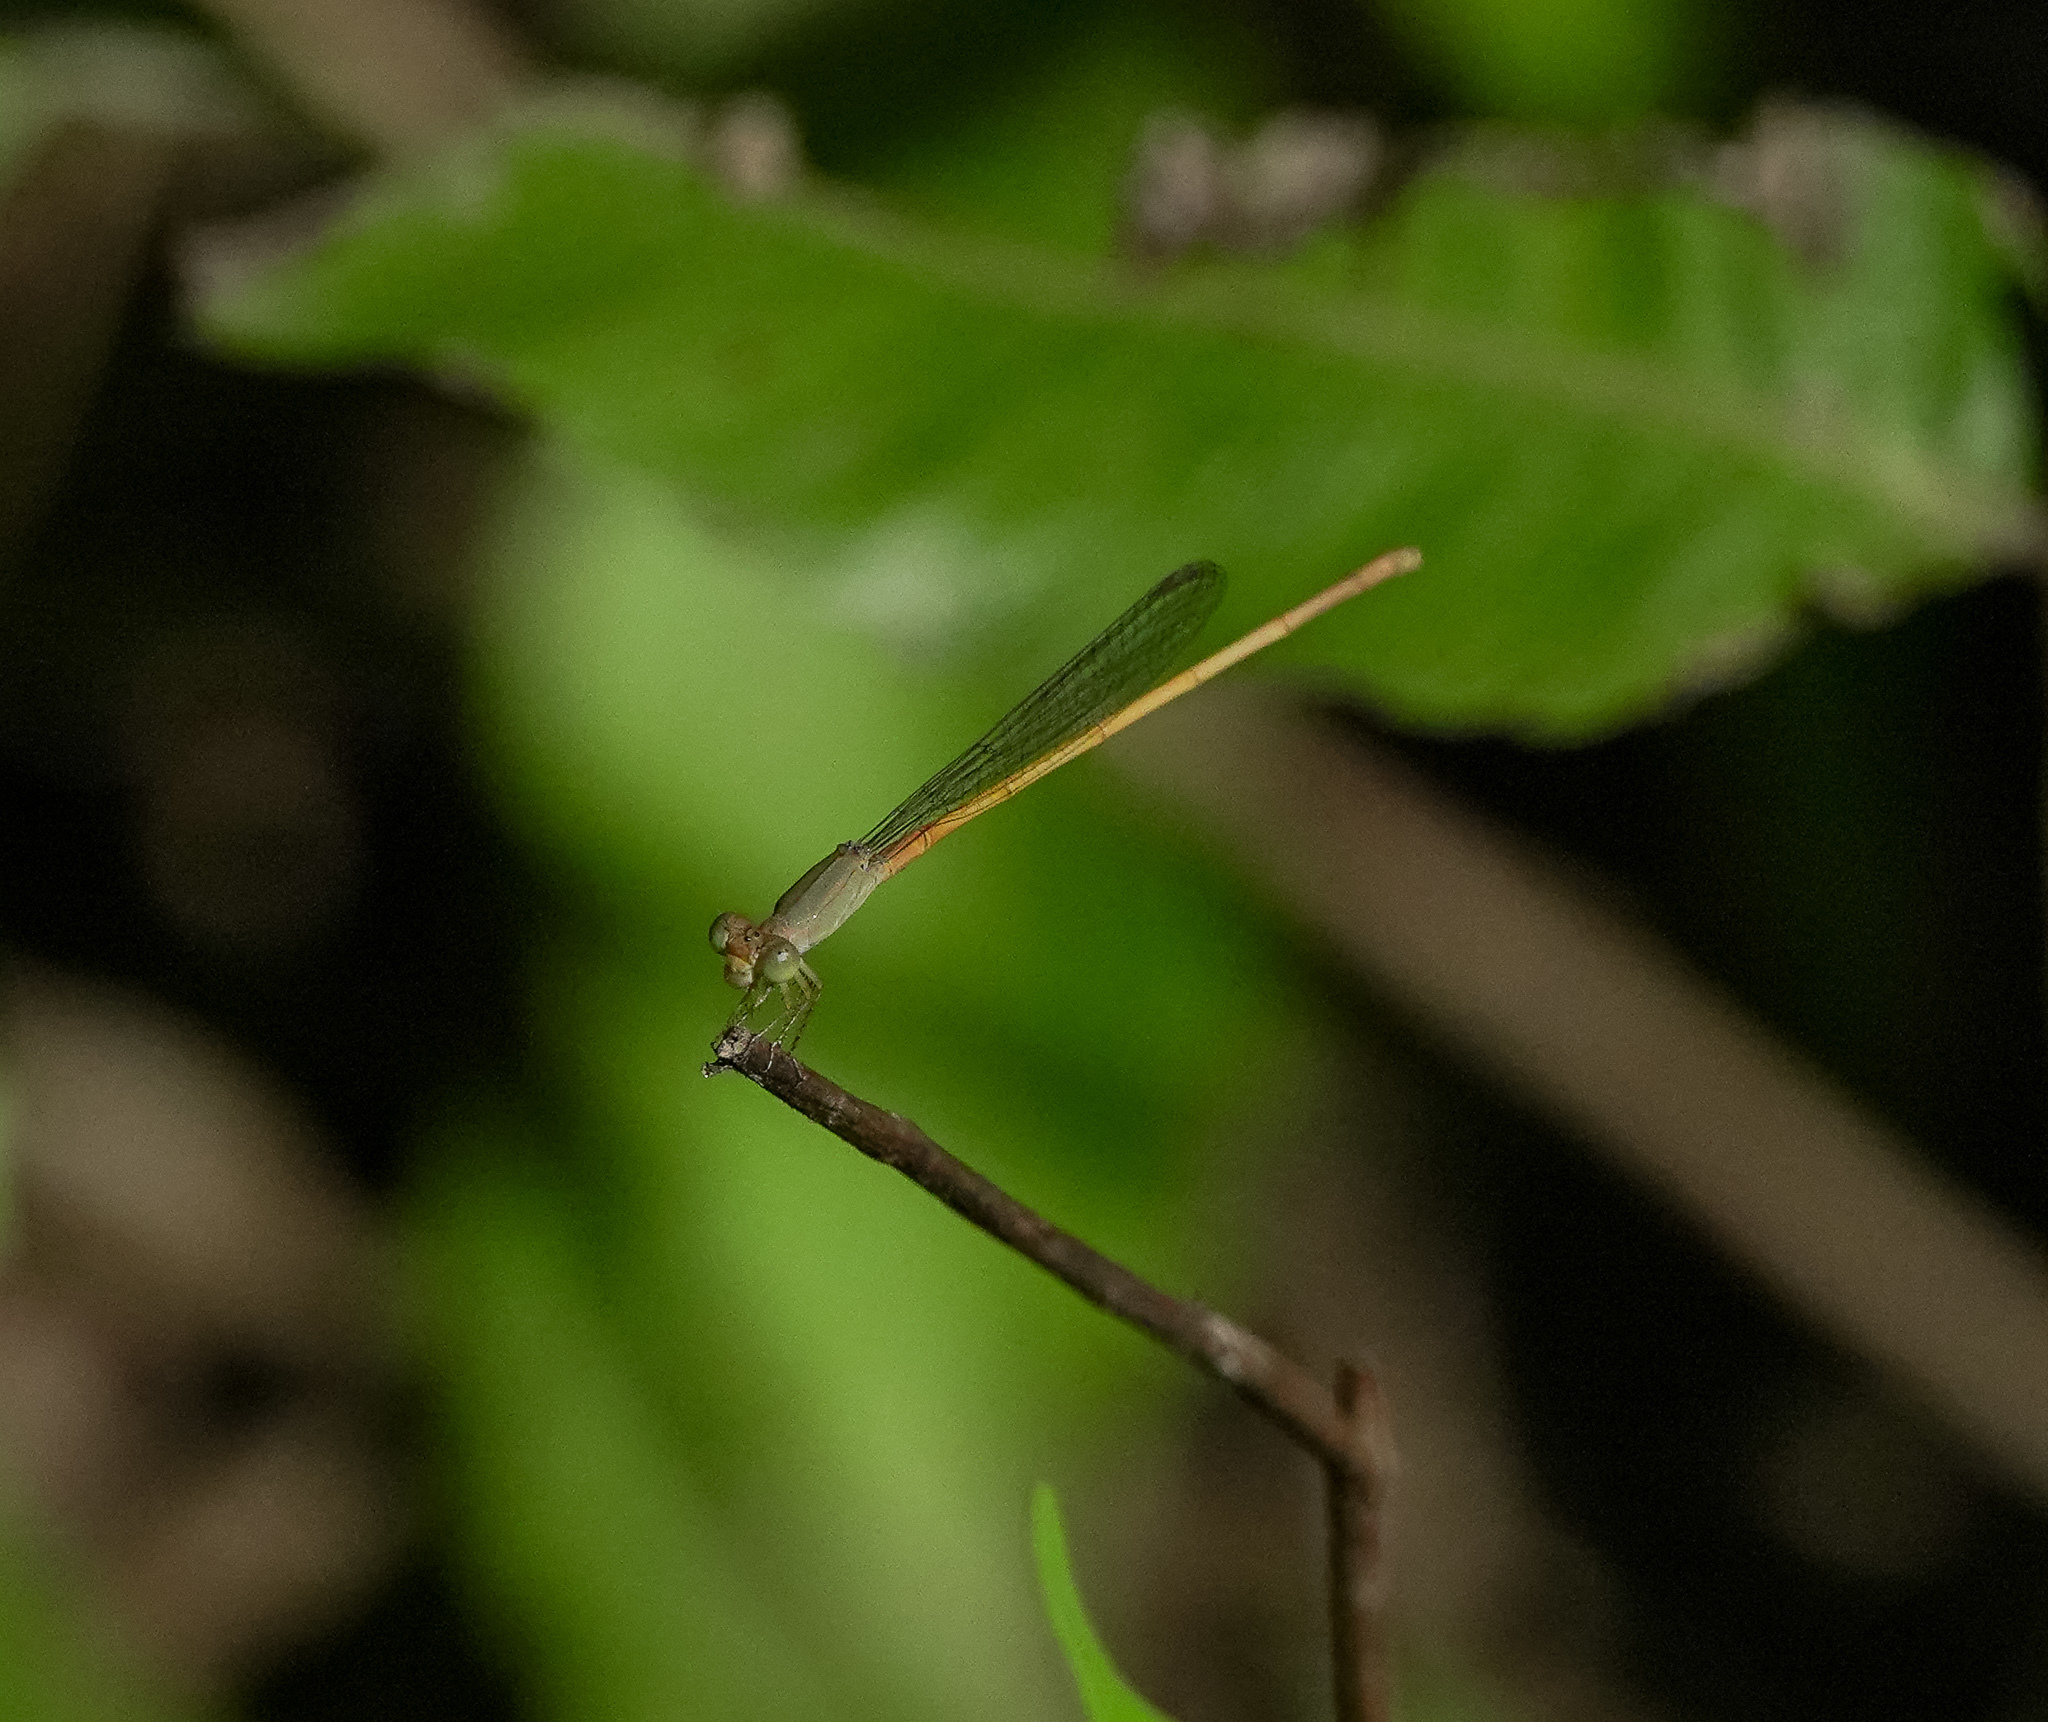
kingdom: Animalia
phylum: Arthropoda
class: Insecta
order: Odonata
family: Coenagrionidae
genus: Ceriagrion
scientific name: Ceriagrion coromandelianum
